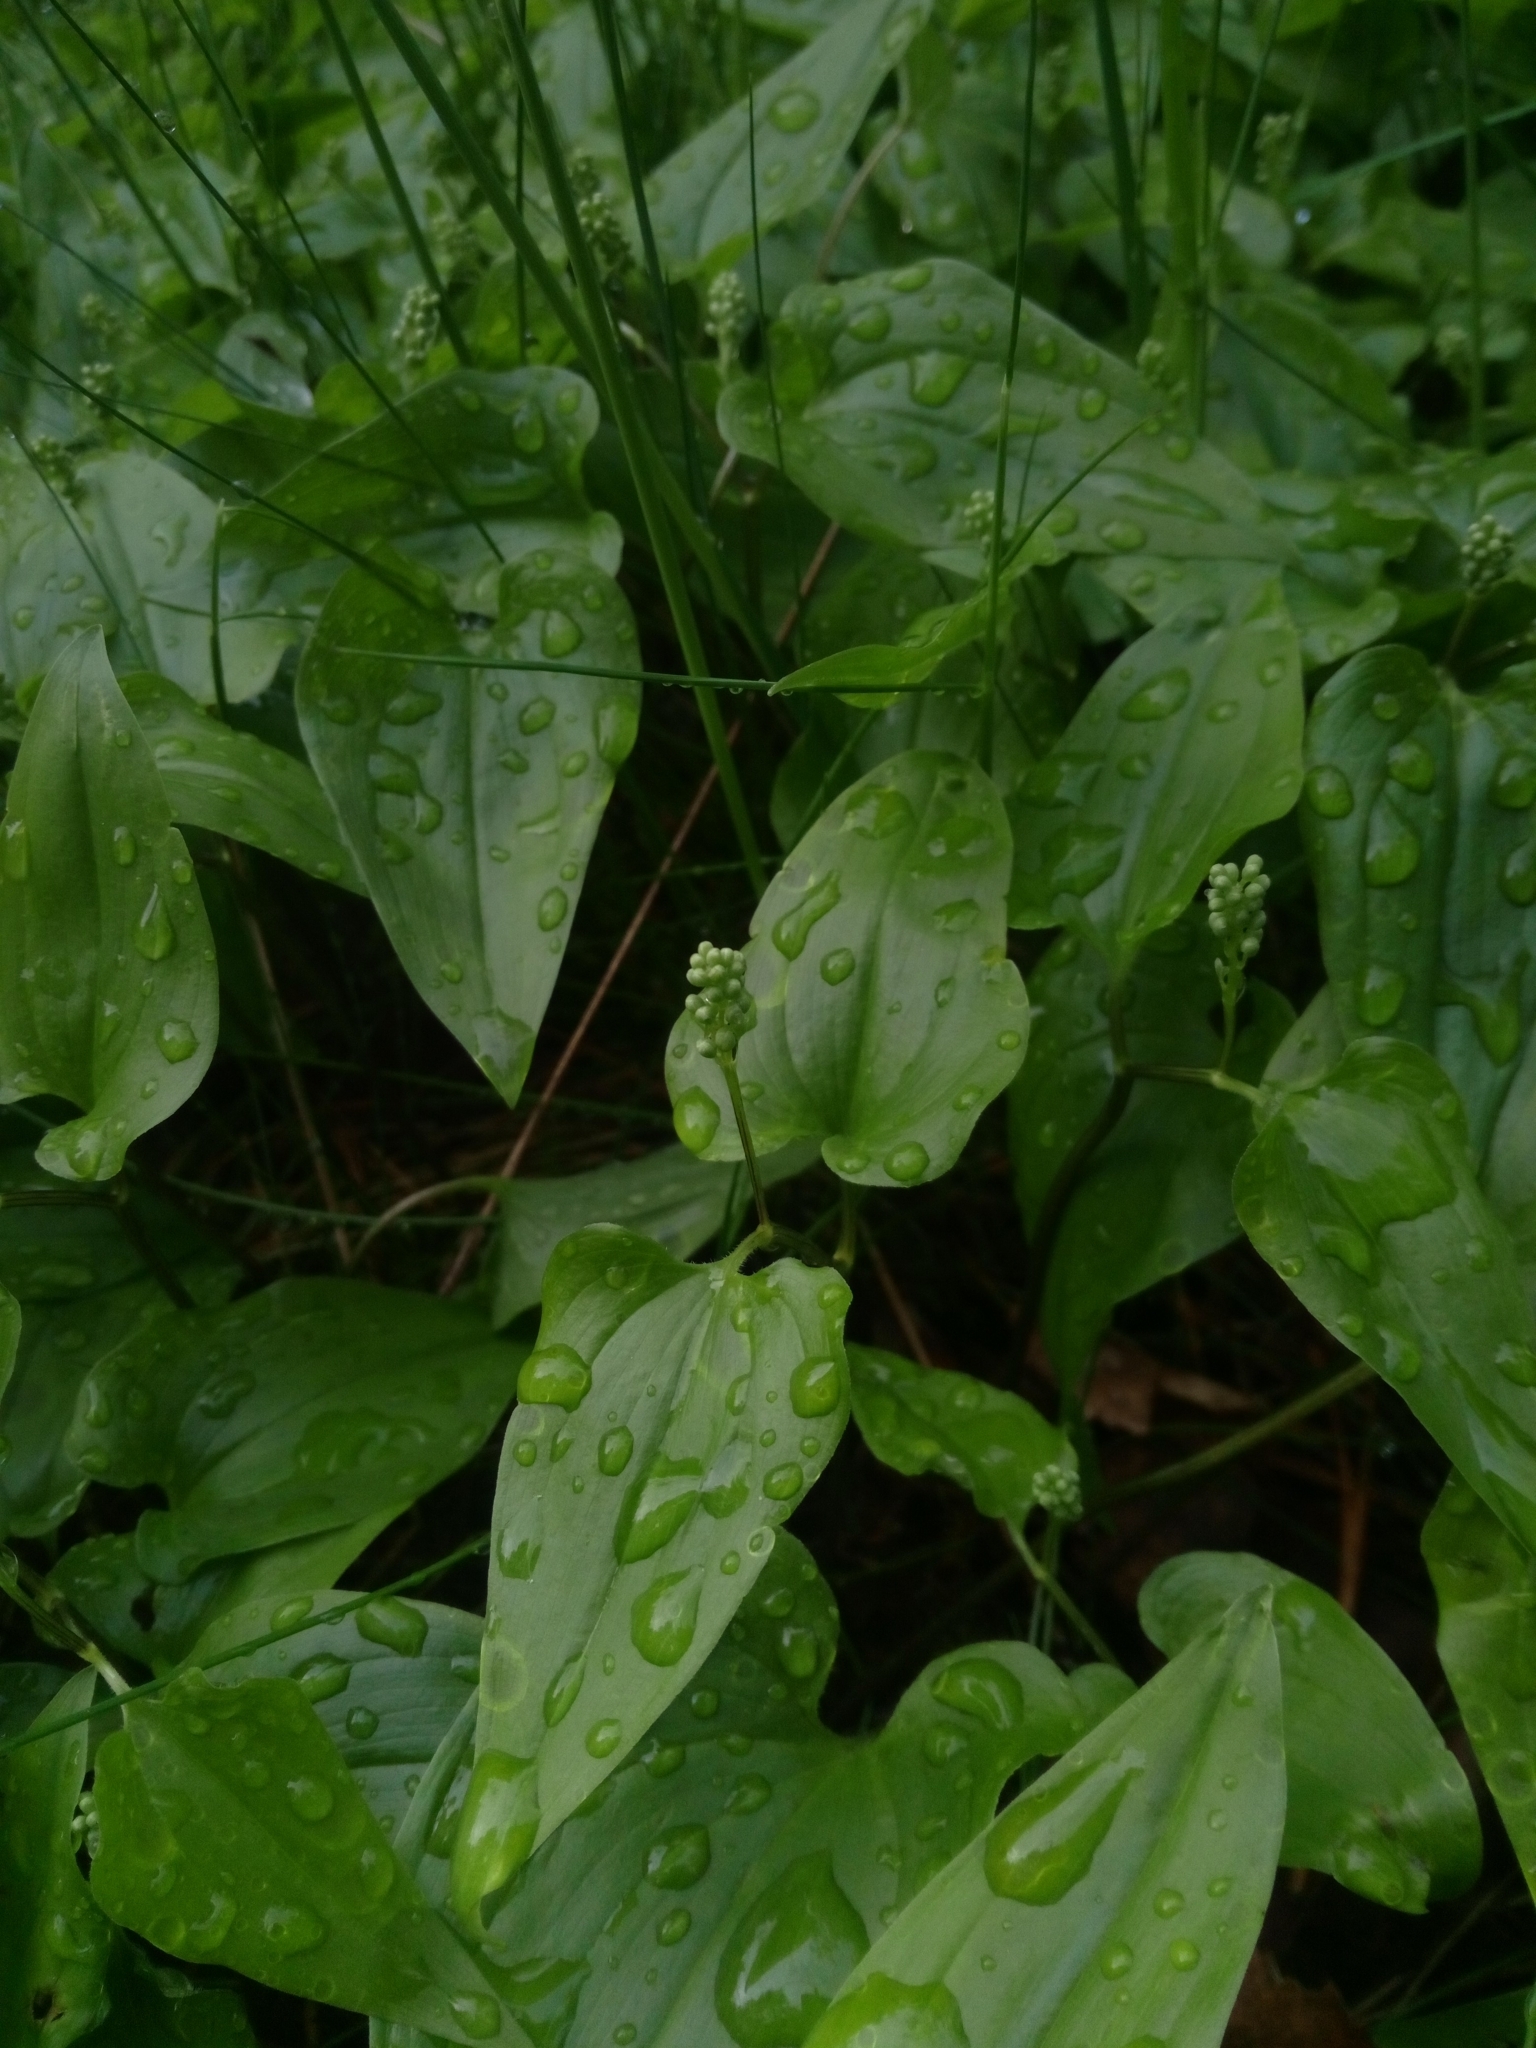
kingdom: Plantae
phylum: Tracheophyta
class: Liliopsida
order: Asparagales
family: Asparagaceae
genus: Maianthemum
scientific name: Maianthemum bifolium
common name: May lily
